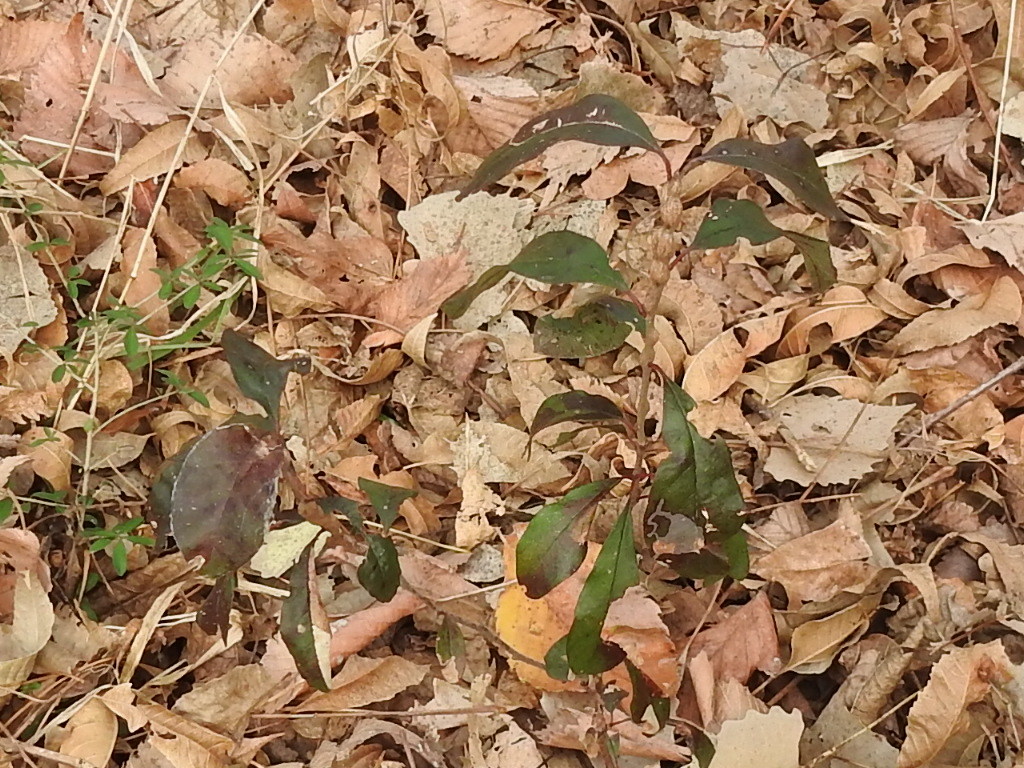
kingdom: Animalia
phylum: Arthropoda
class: Insecta
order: Diptera
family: Cecidomyiidae
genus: Bruggmanniella
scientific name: Bruggmanniella bumeliae
